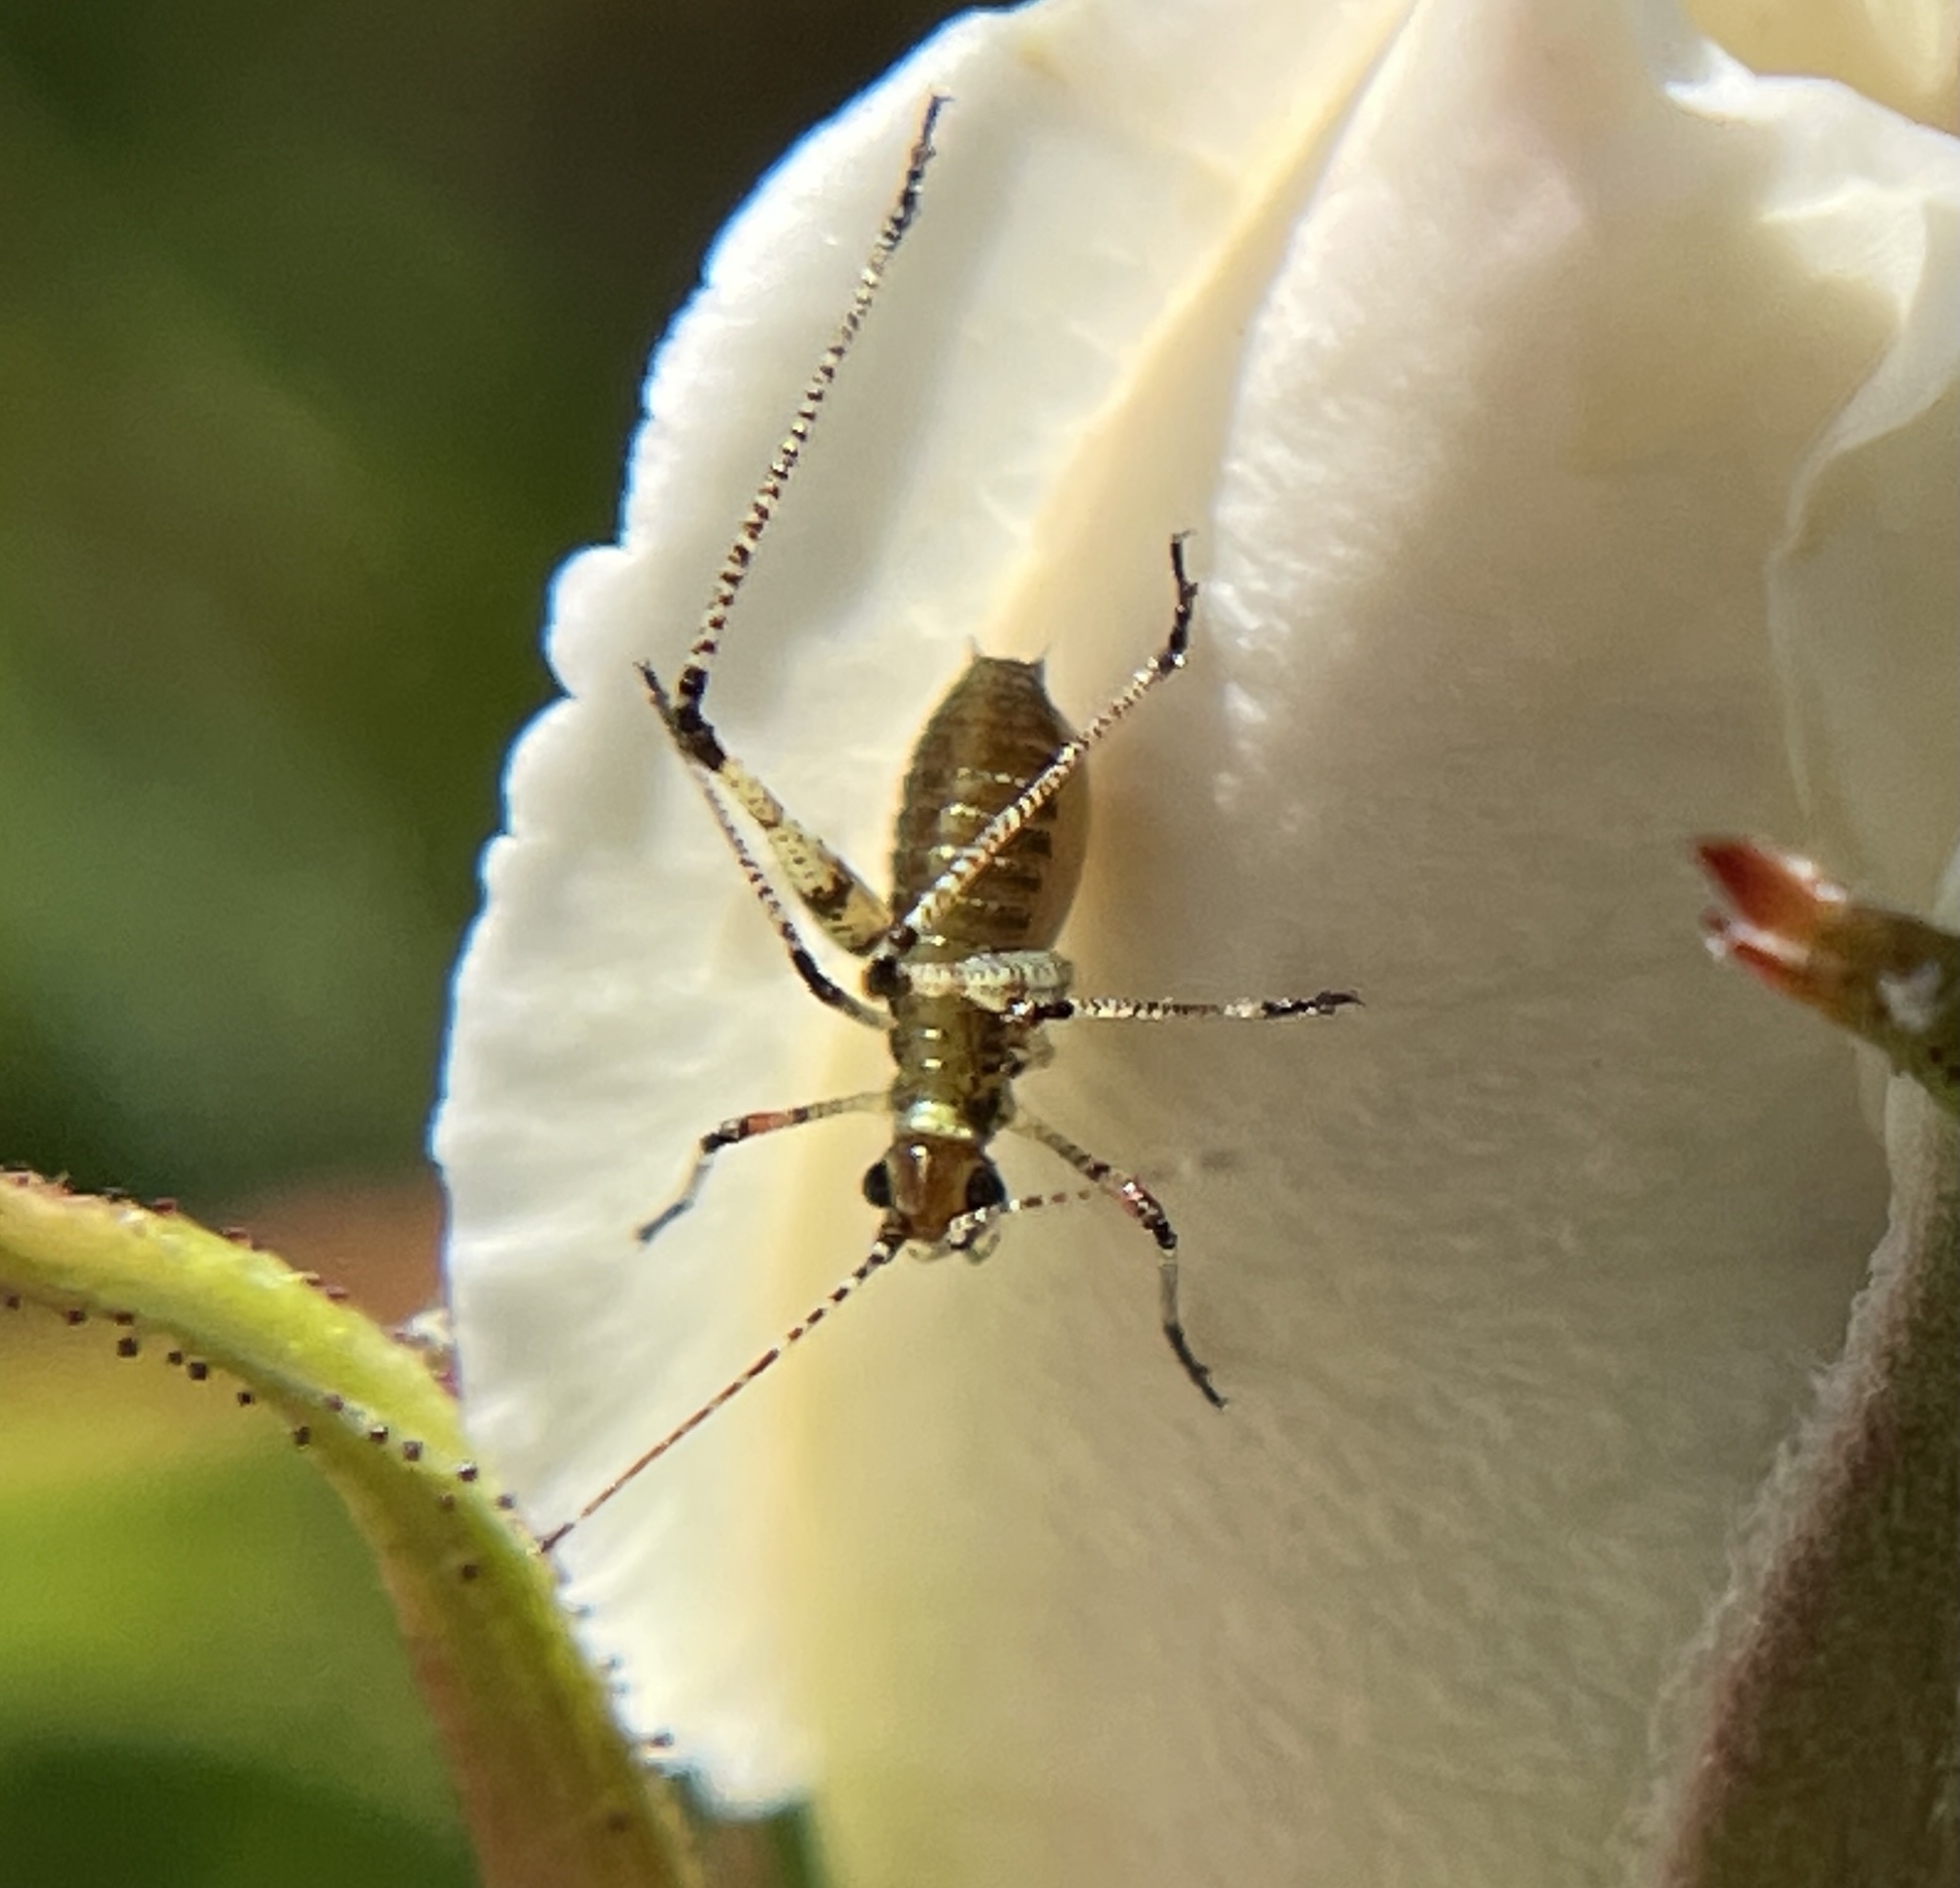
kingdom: Animalia
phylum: Arthropoda
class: Insecta
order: Orthoptera
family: Tettigoniidae
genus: Phaneroptera
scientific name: Phaneroptera nana
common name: Southern sickle bush-cricket
